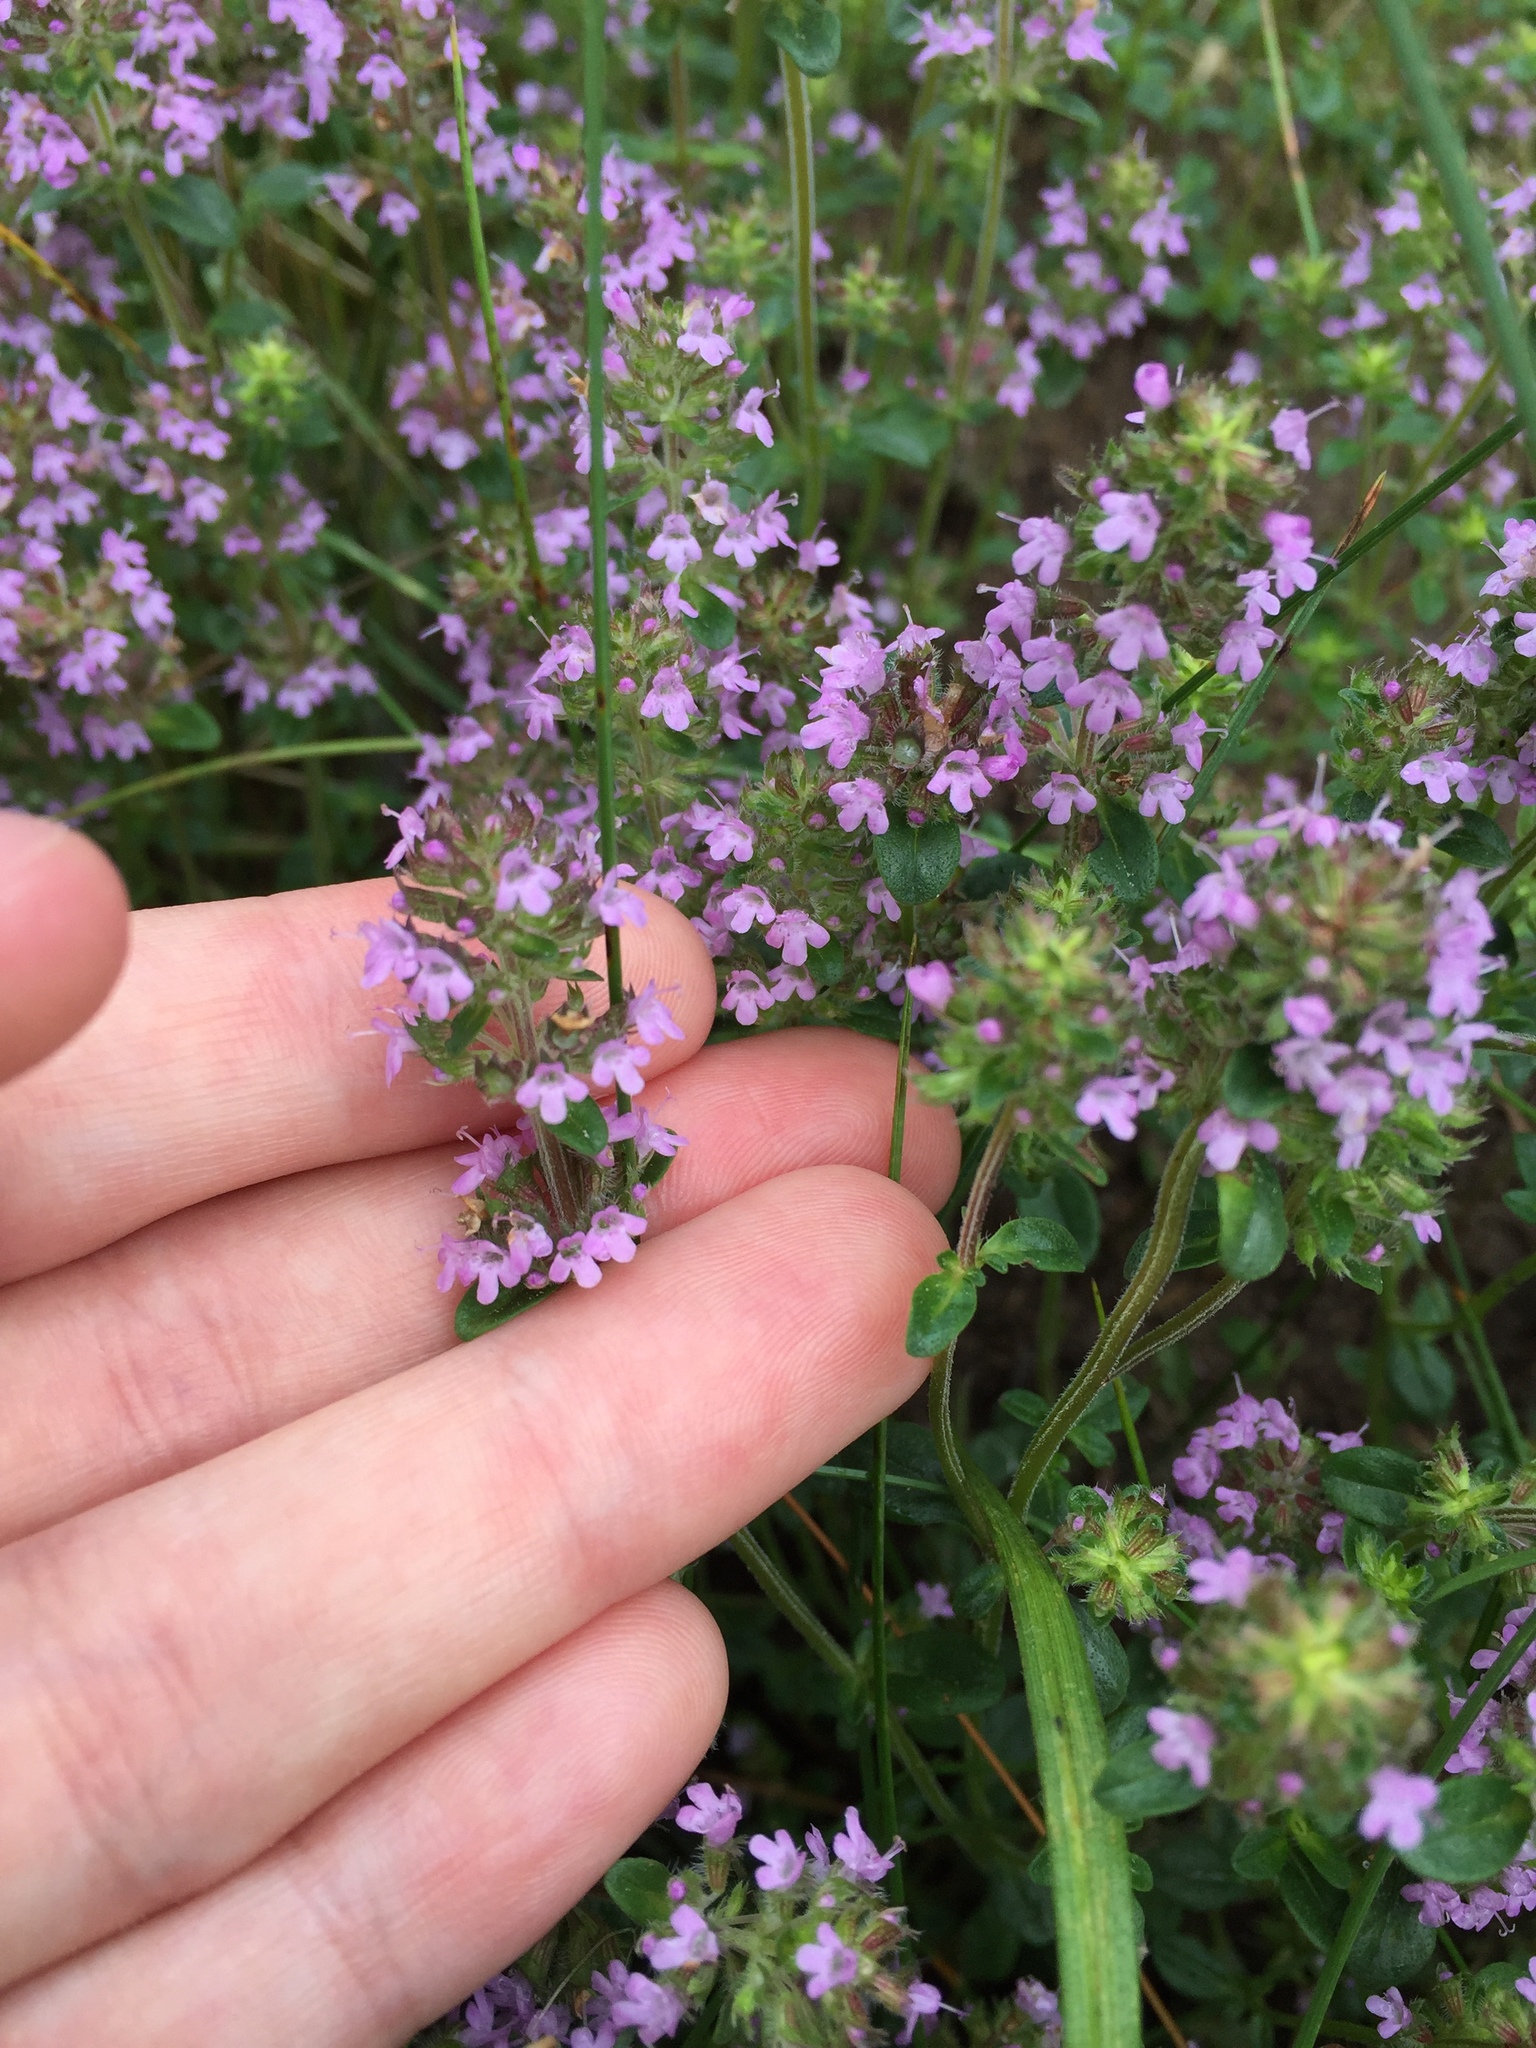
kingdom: Plantae
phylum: Tracheophyta
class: Magnoliopsida
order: Lamiales
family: Lamiaceae
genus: Thymus
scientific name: Thymus pulegioides
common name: Large thyme
